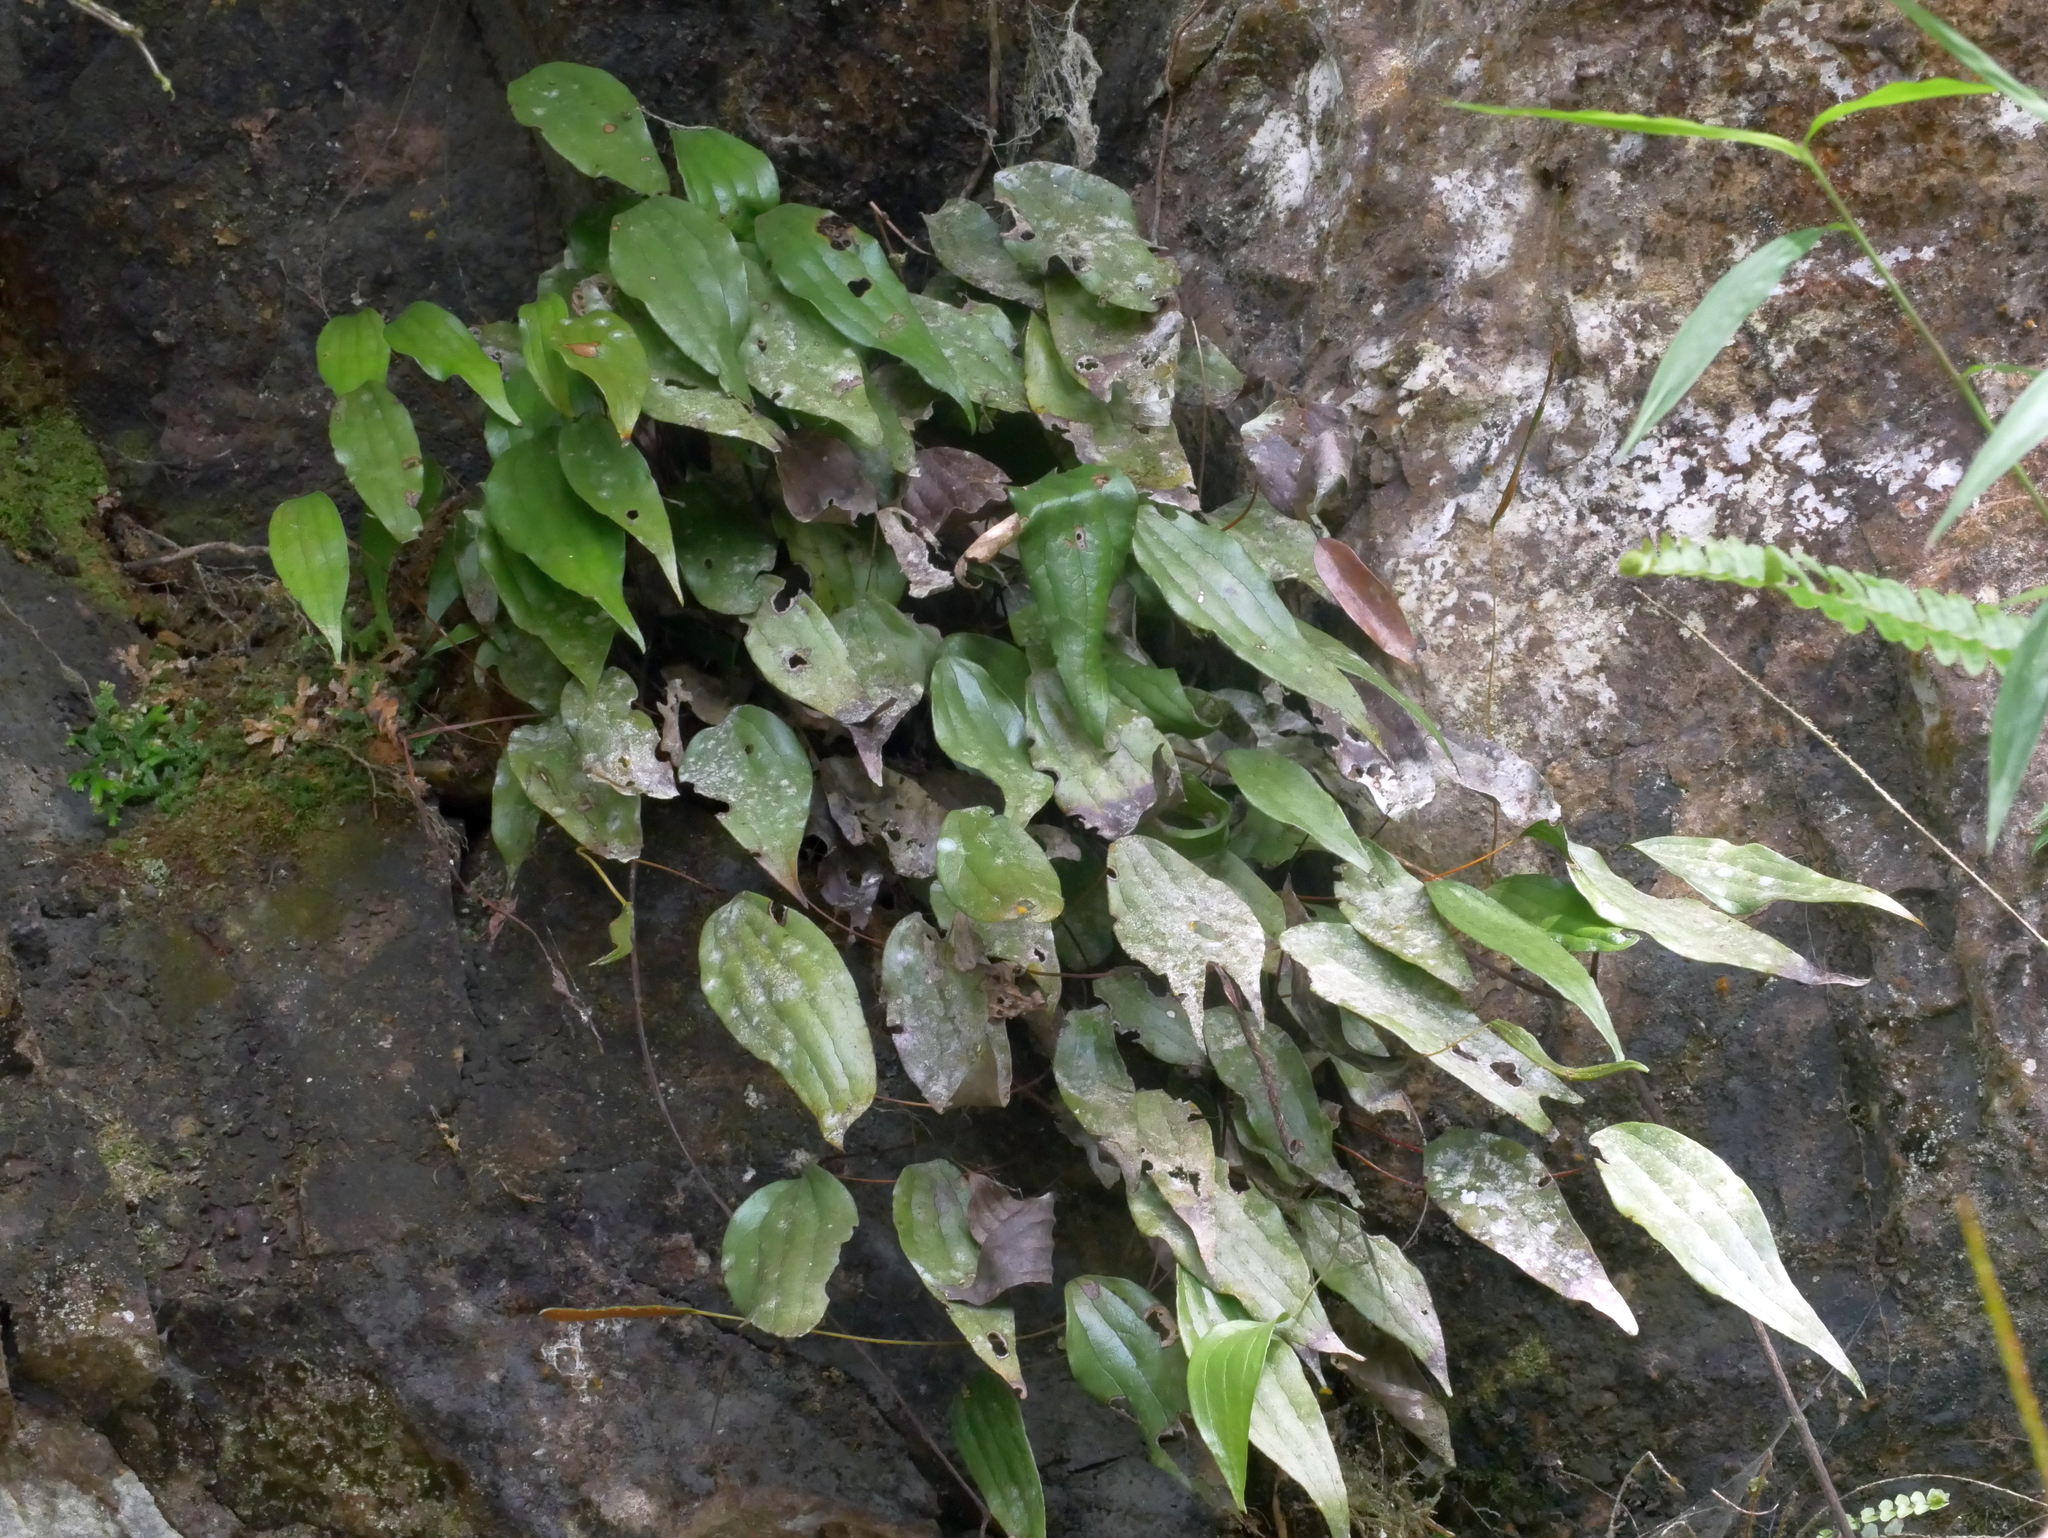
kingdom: Plantae
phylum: Tracheophyta
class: Polypodiopsida
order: Gleicheniales
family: Dipteridaceae
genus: Cheiropleuria
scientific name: Cheiropleuria integrifolia
